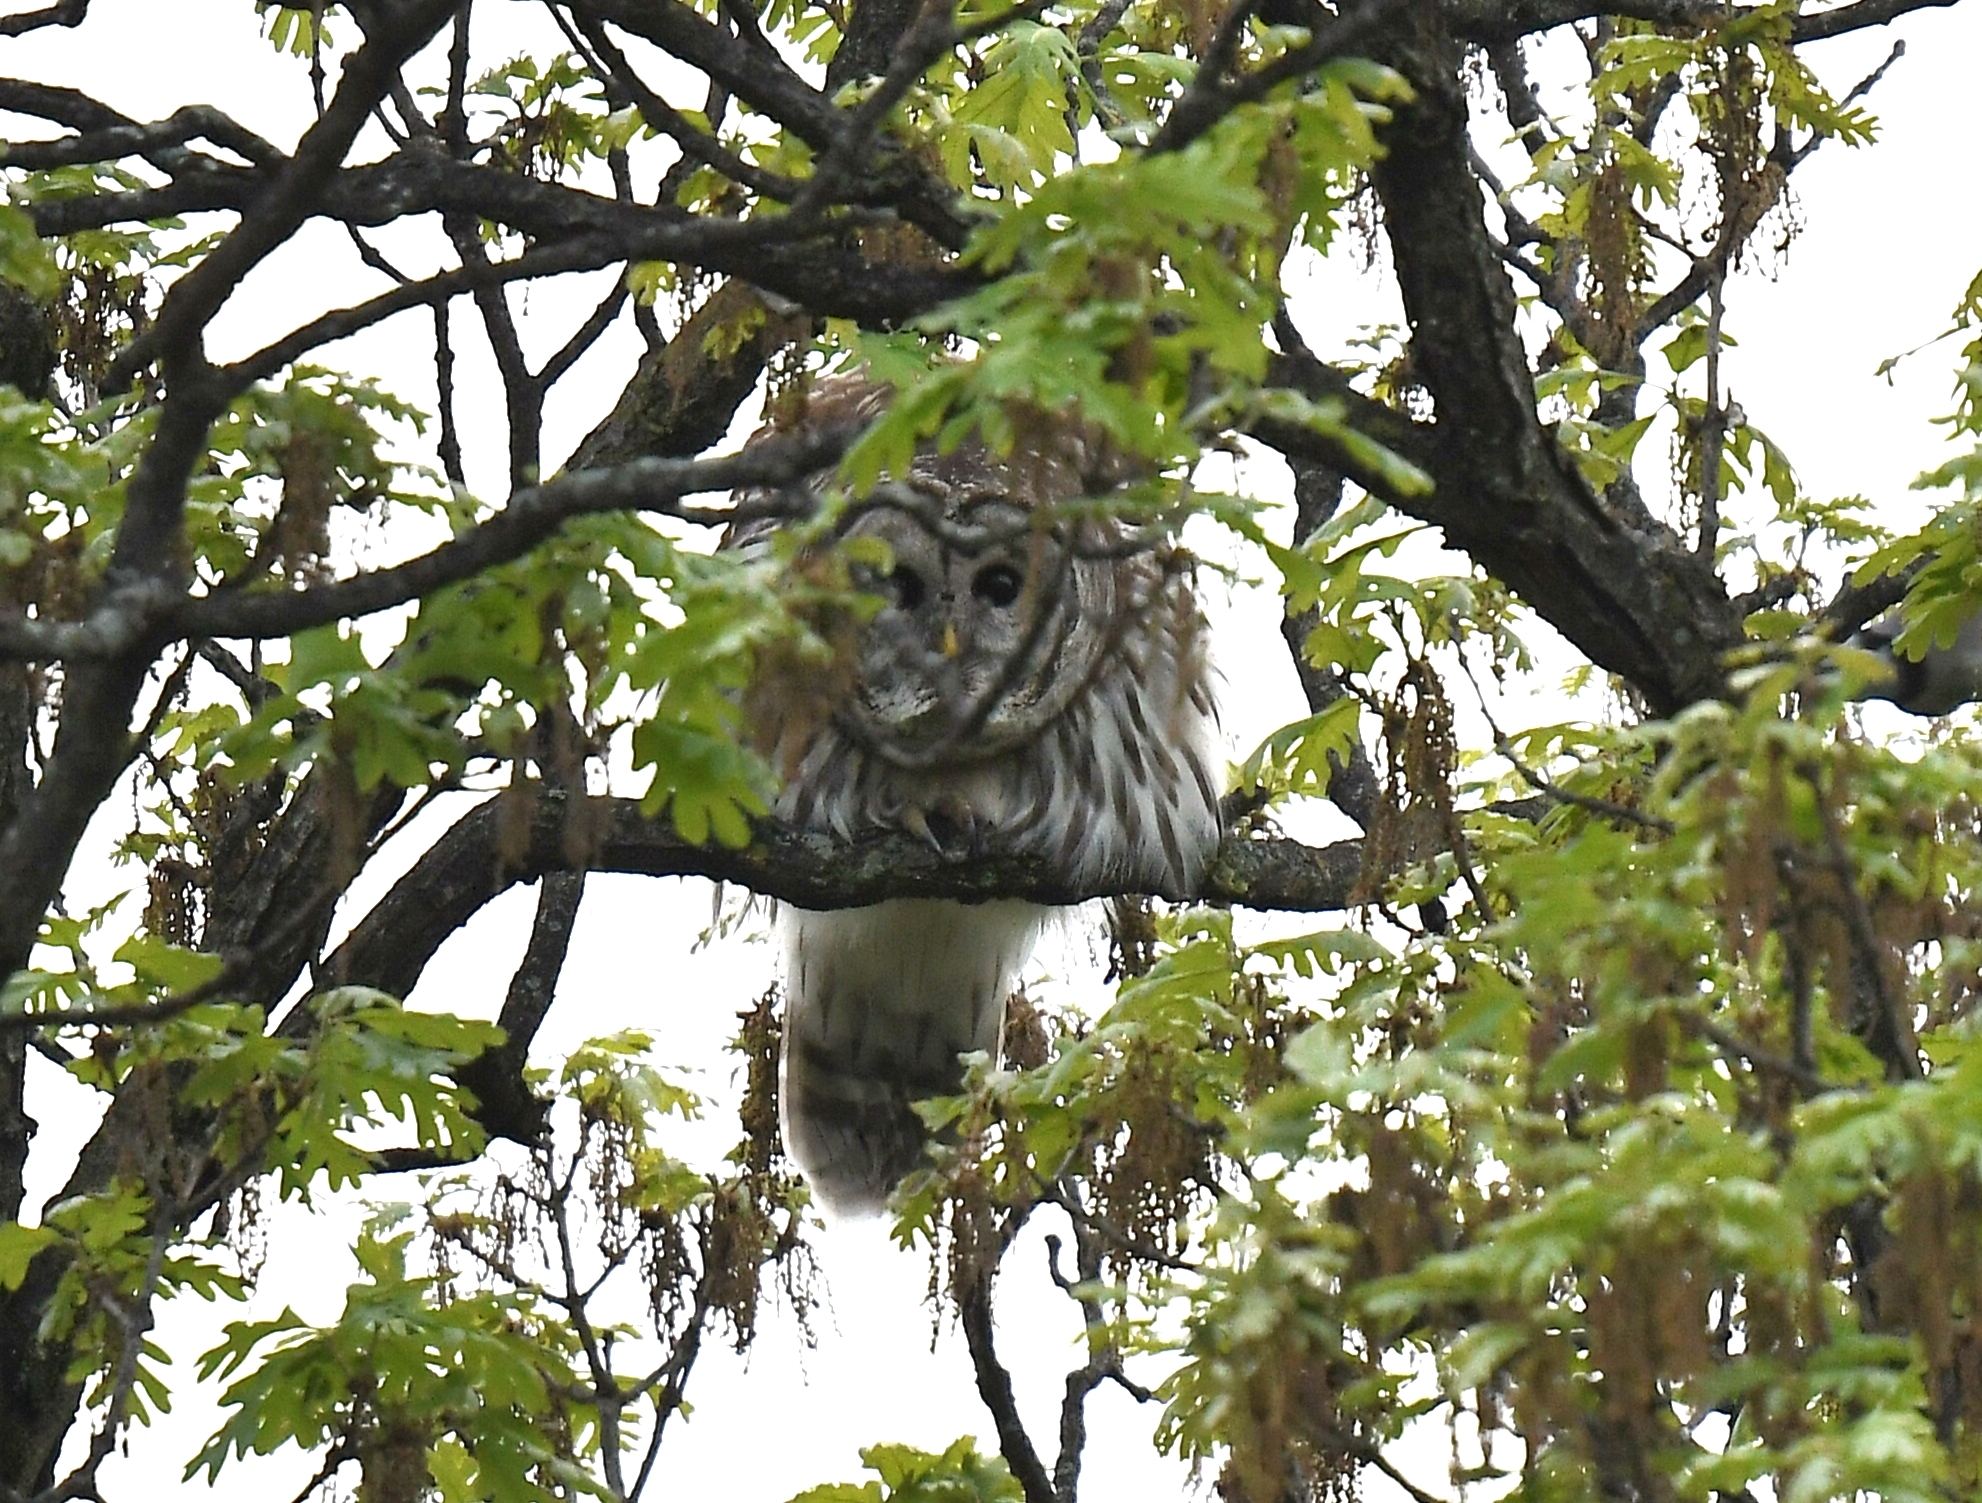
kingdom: Animalia
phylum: Chordata
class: Aves
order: Strigiformes
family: Strigidae
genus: Strix
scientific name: Strix varia
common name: Barred owl
